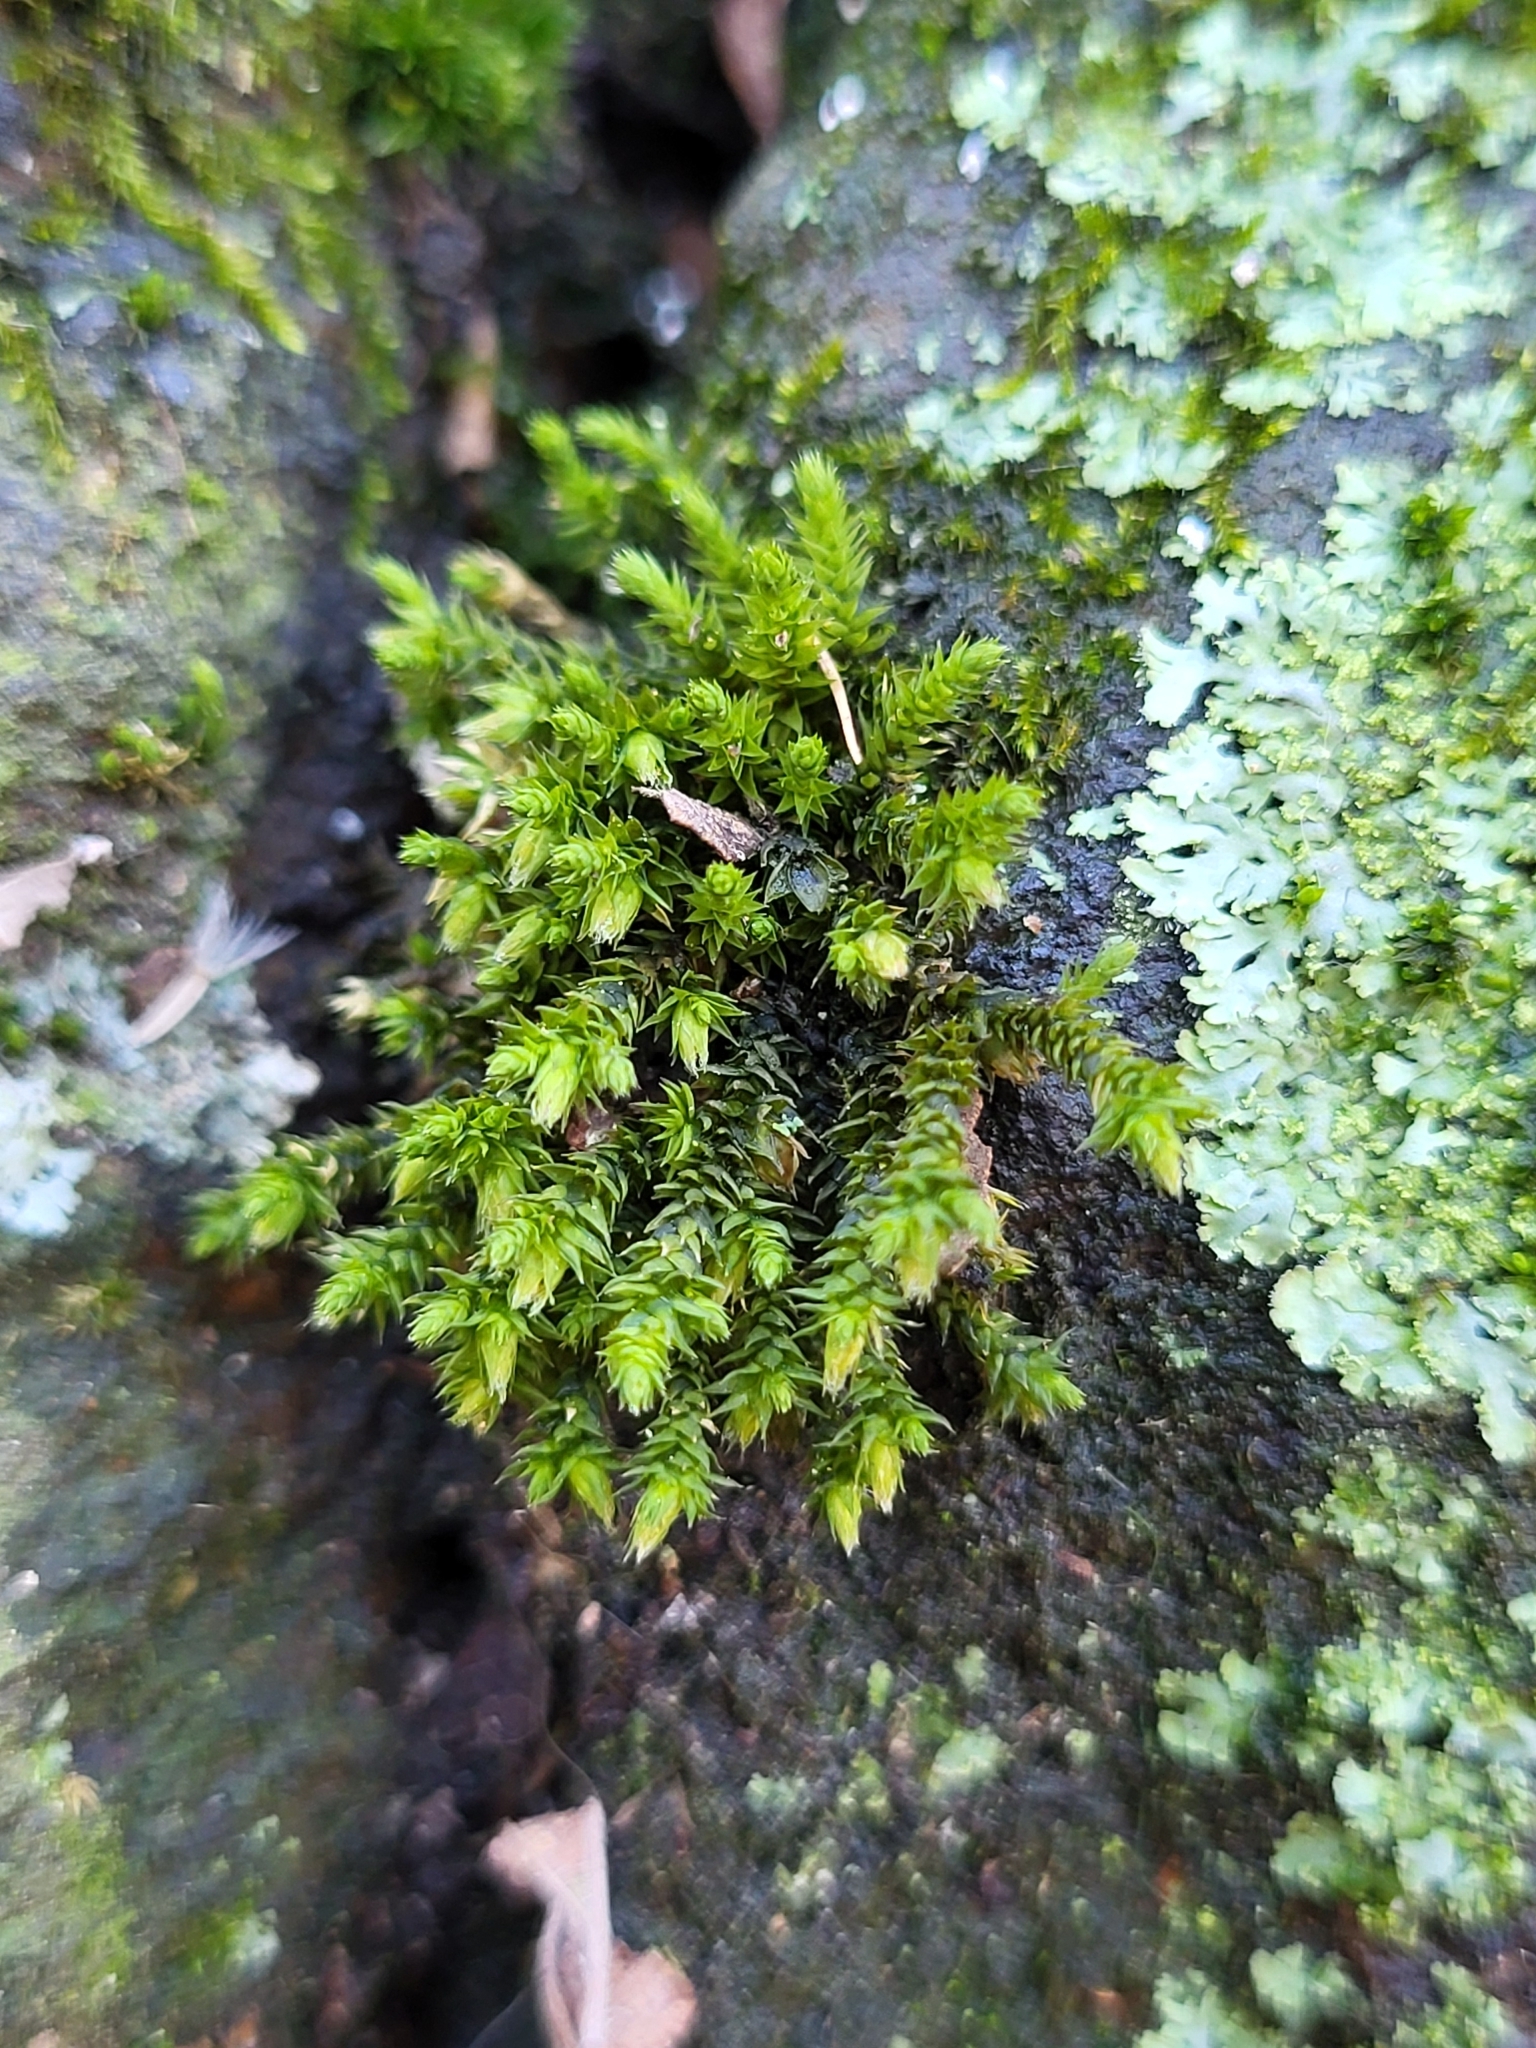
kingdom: Plantae
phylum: Bryophyta
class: Bryopsida
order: Hedwigiales
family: Hedwigiaceae
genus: Hedwigia
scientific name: Hedwigia ciliata
